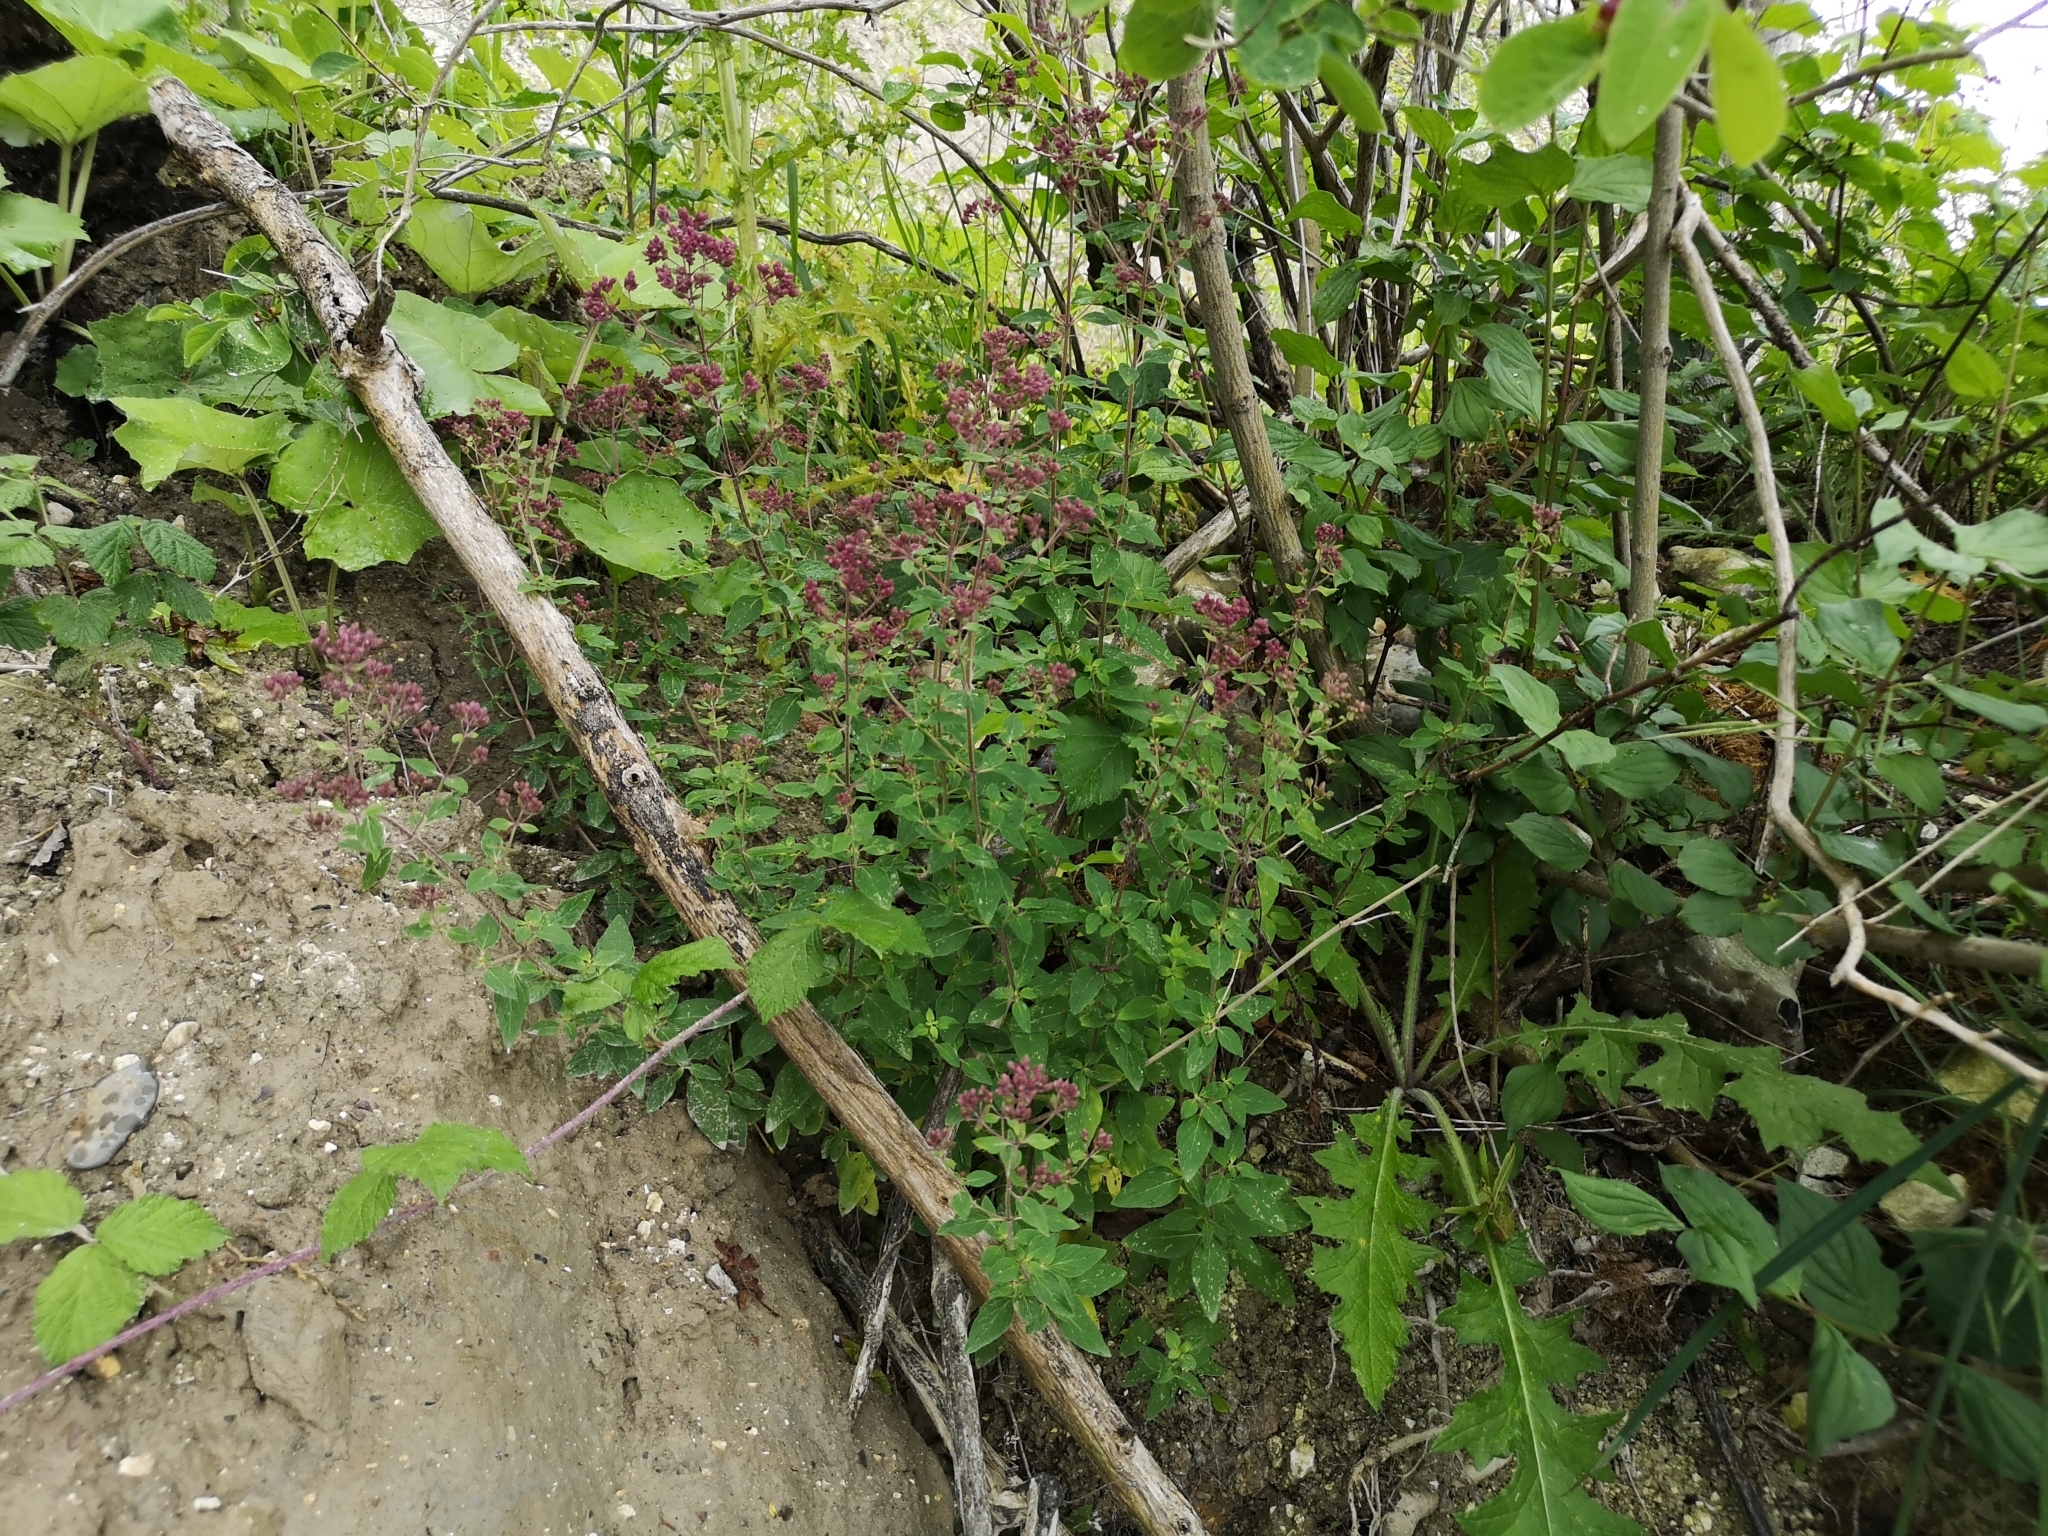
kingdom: Plantae
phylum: Tracheophyta
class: Magnoliopsida
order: Lamiales
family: Lamiaceae
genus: Origanum
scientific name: Origanum vulgare
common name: Wild marjoram
